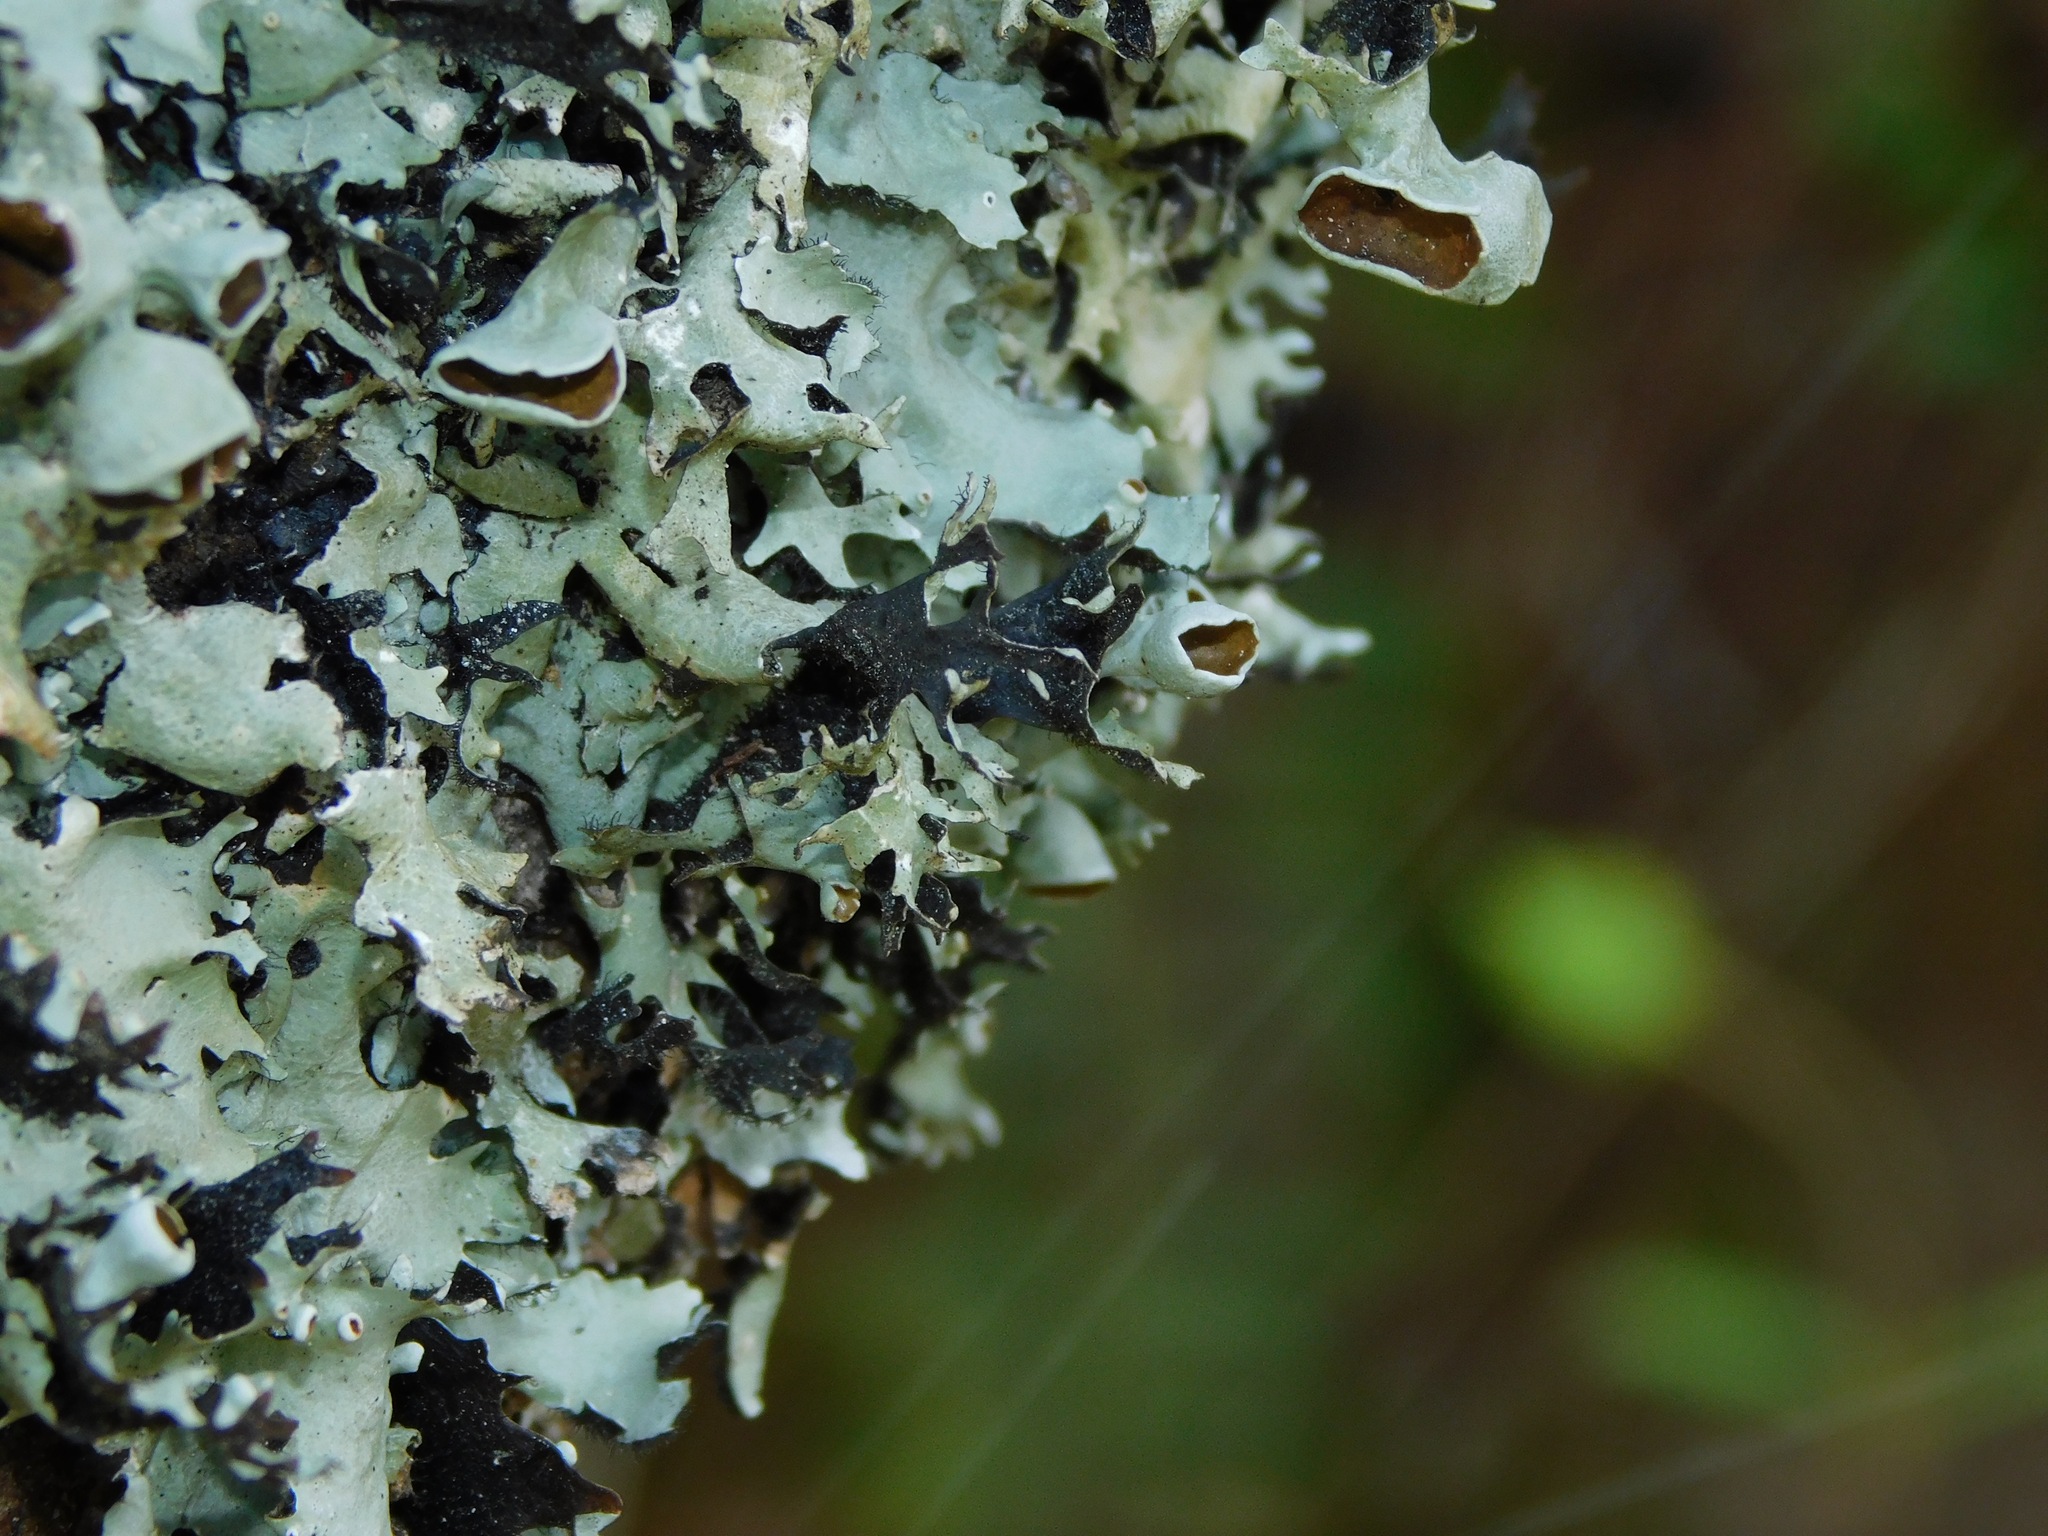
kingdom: Fungi
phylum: Ascomycota
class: Lecanoromycetes
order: Lecanorales
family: Parmeliaceae
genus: Parmotrema
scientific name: Parmotrema cetratum
